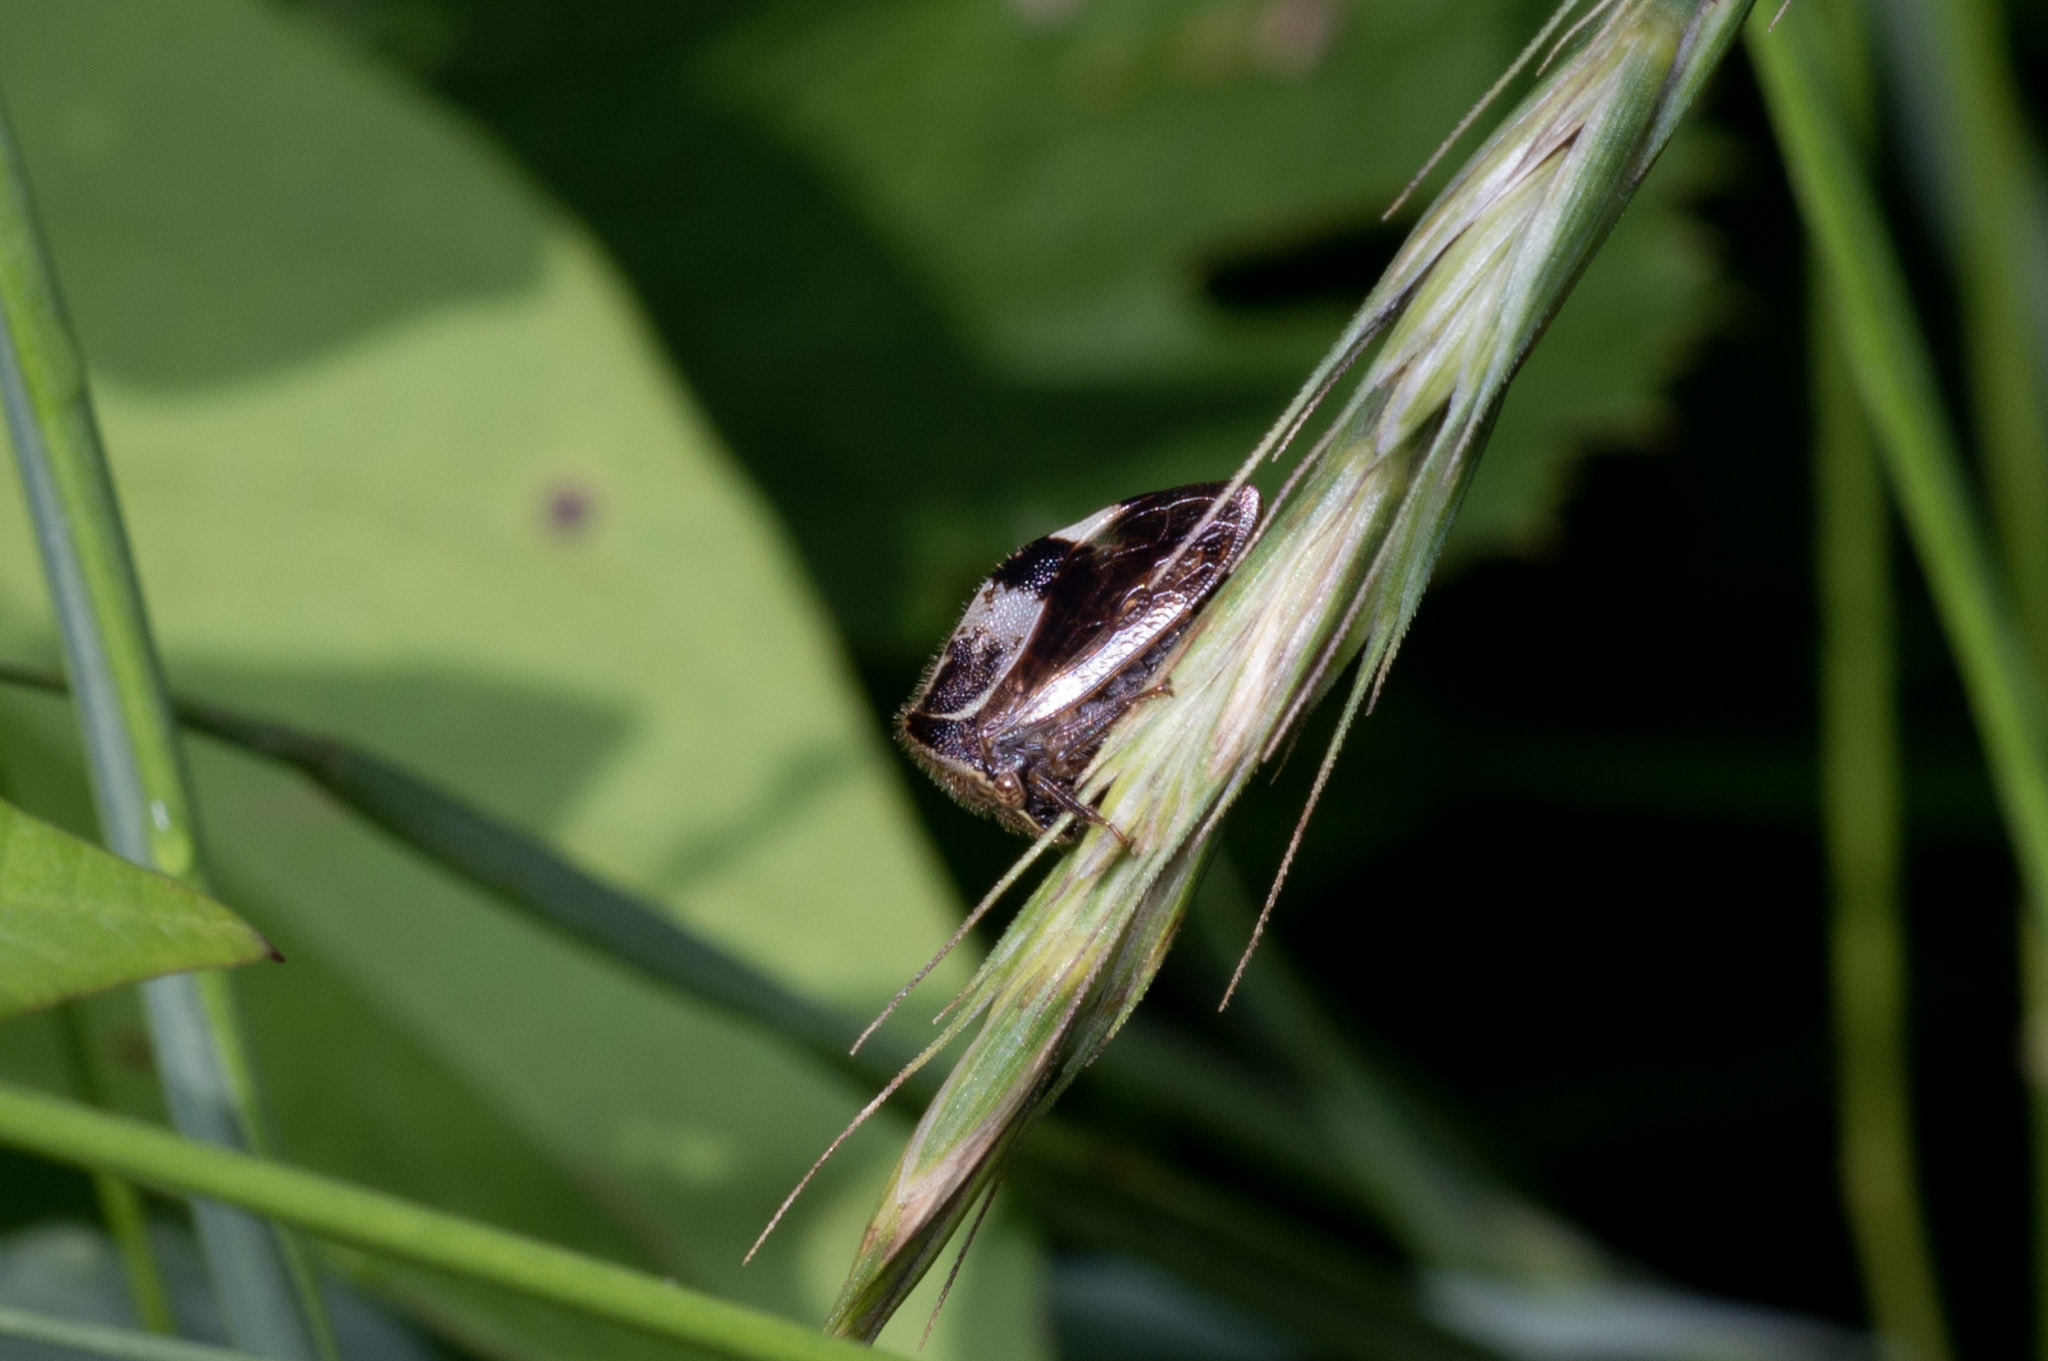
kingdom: Animalia
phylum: Arthropoda
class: Insecta
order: Hemiptera
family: Membracidae
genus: Stictocephala
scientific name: Stictocephala diceros
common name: Two-horned treehopper
